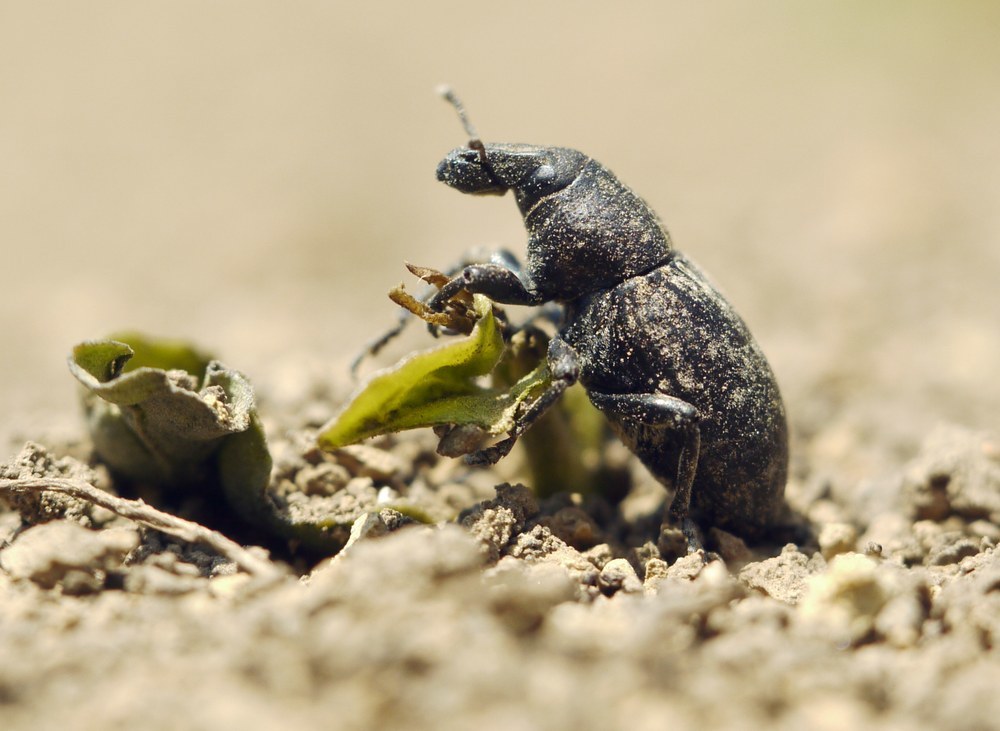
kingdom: Animalia
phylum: Arthropoda
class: Insecta
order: Coleoptera
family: Curculionidae
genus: Leucophyes
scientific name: Leucophyes pedestris
